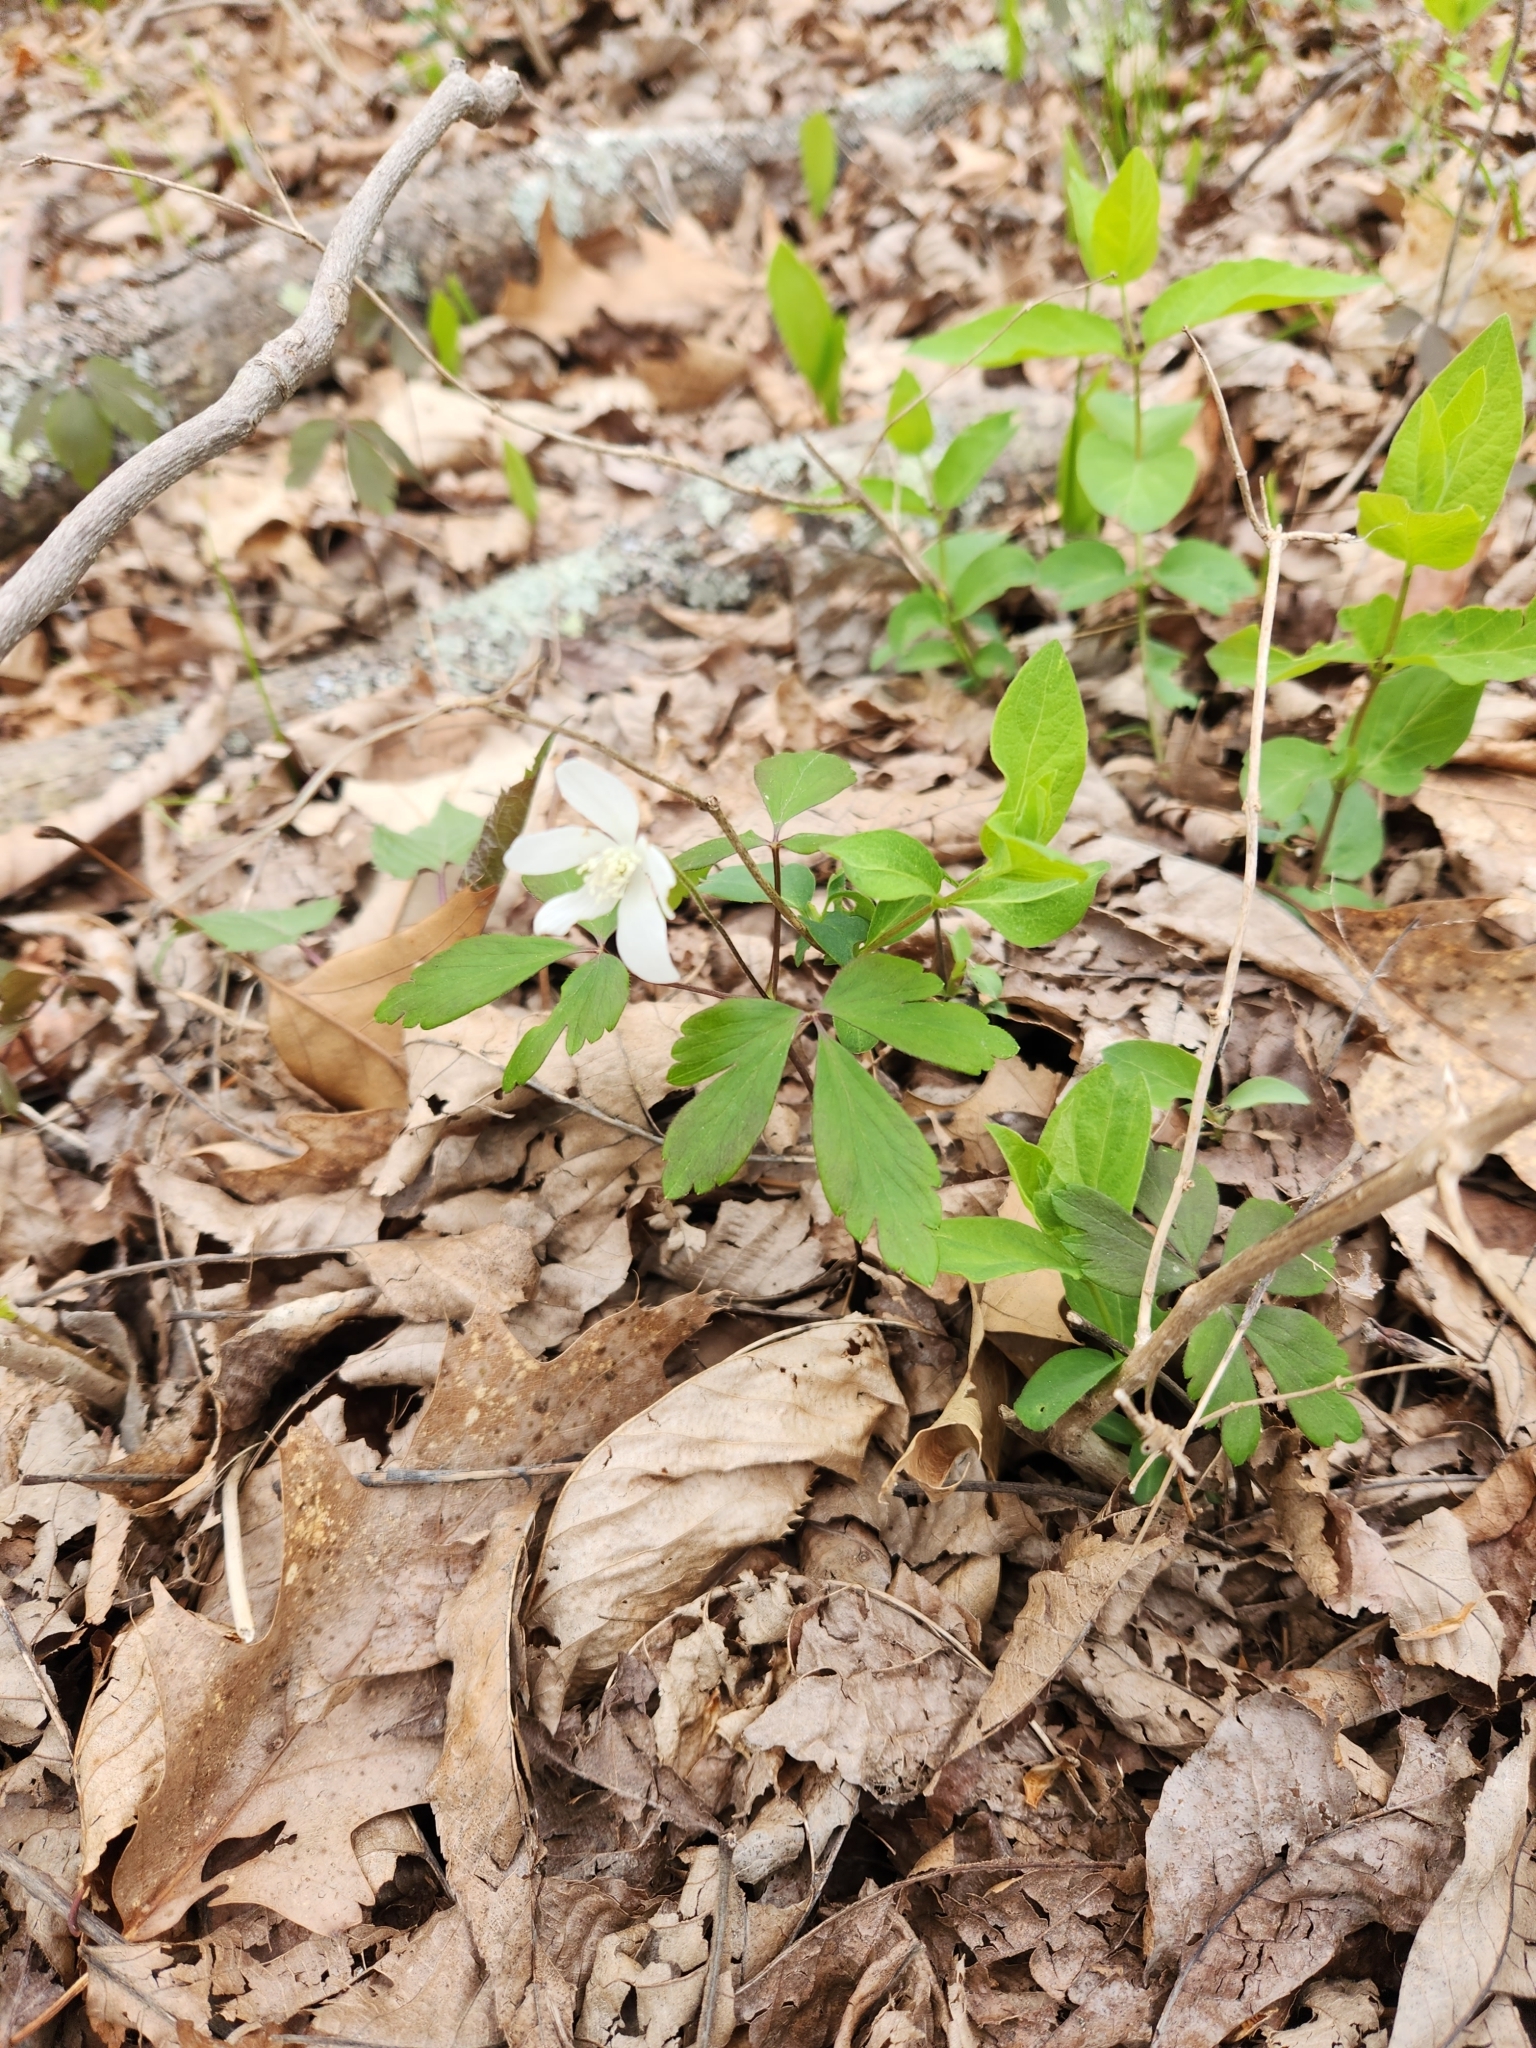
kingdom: Plantae
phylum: Tracheophyta
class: Magnoliopsida
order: Ranunculales
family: Ranunculaceae
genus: Anemone
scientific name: Anemone quinquefolia
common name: Wood anemone
